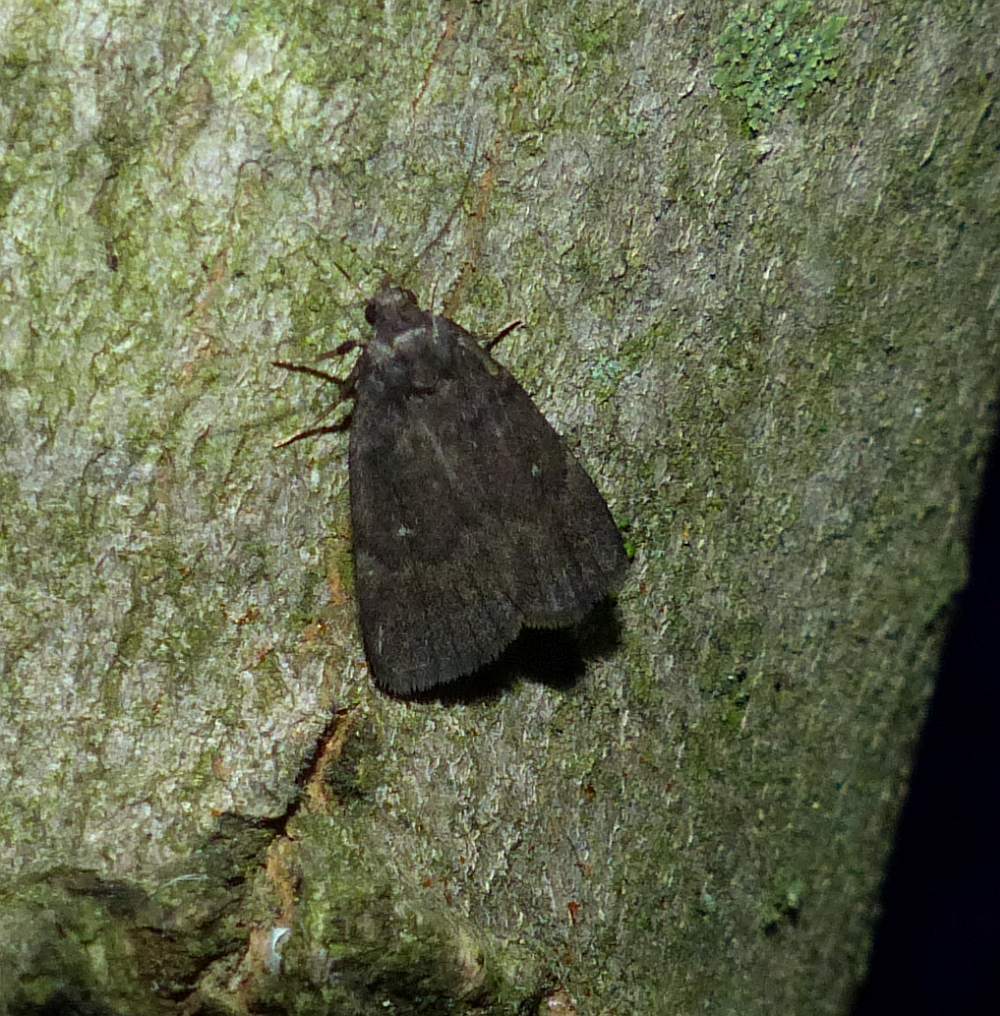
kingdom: Animalia
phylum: Arthropoda
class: Insecta
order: Lepidoptera
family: Erebidae
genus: Idia
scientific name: Idia rotundalis
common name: Rotund idia moth
